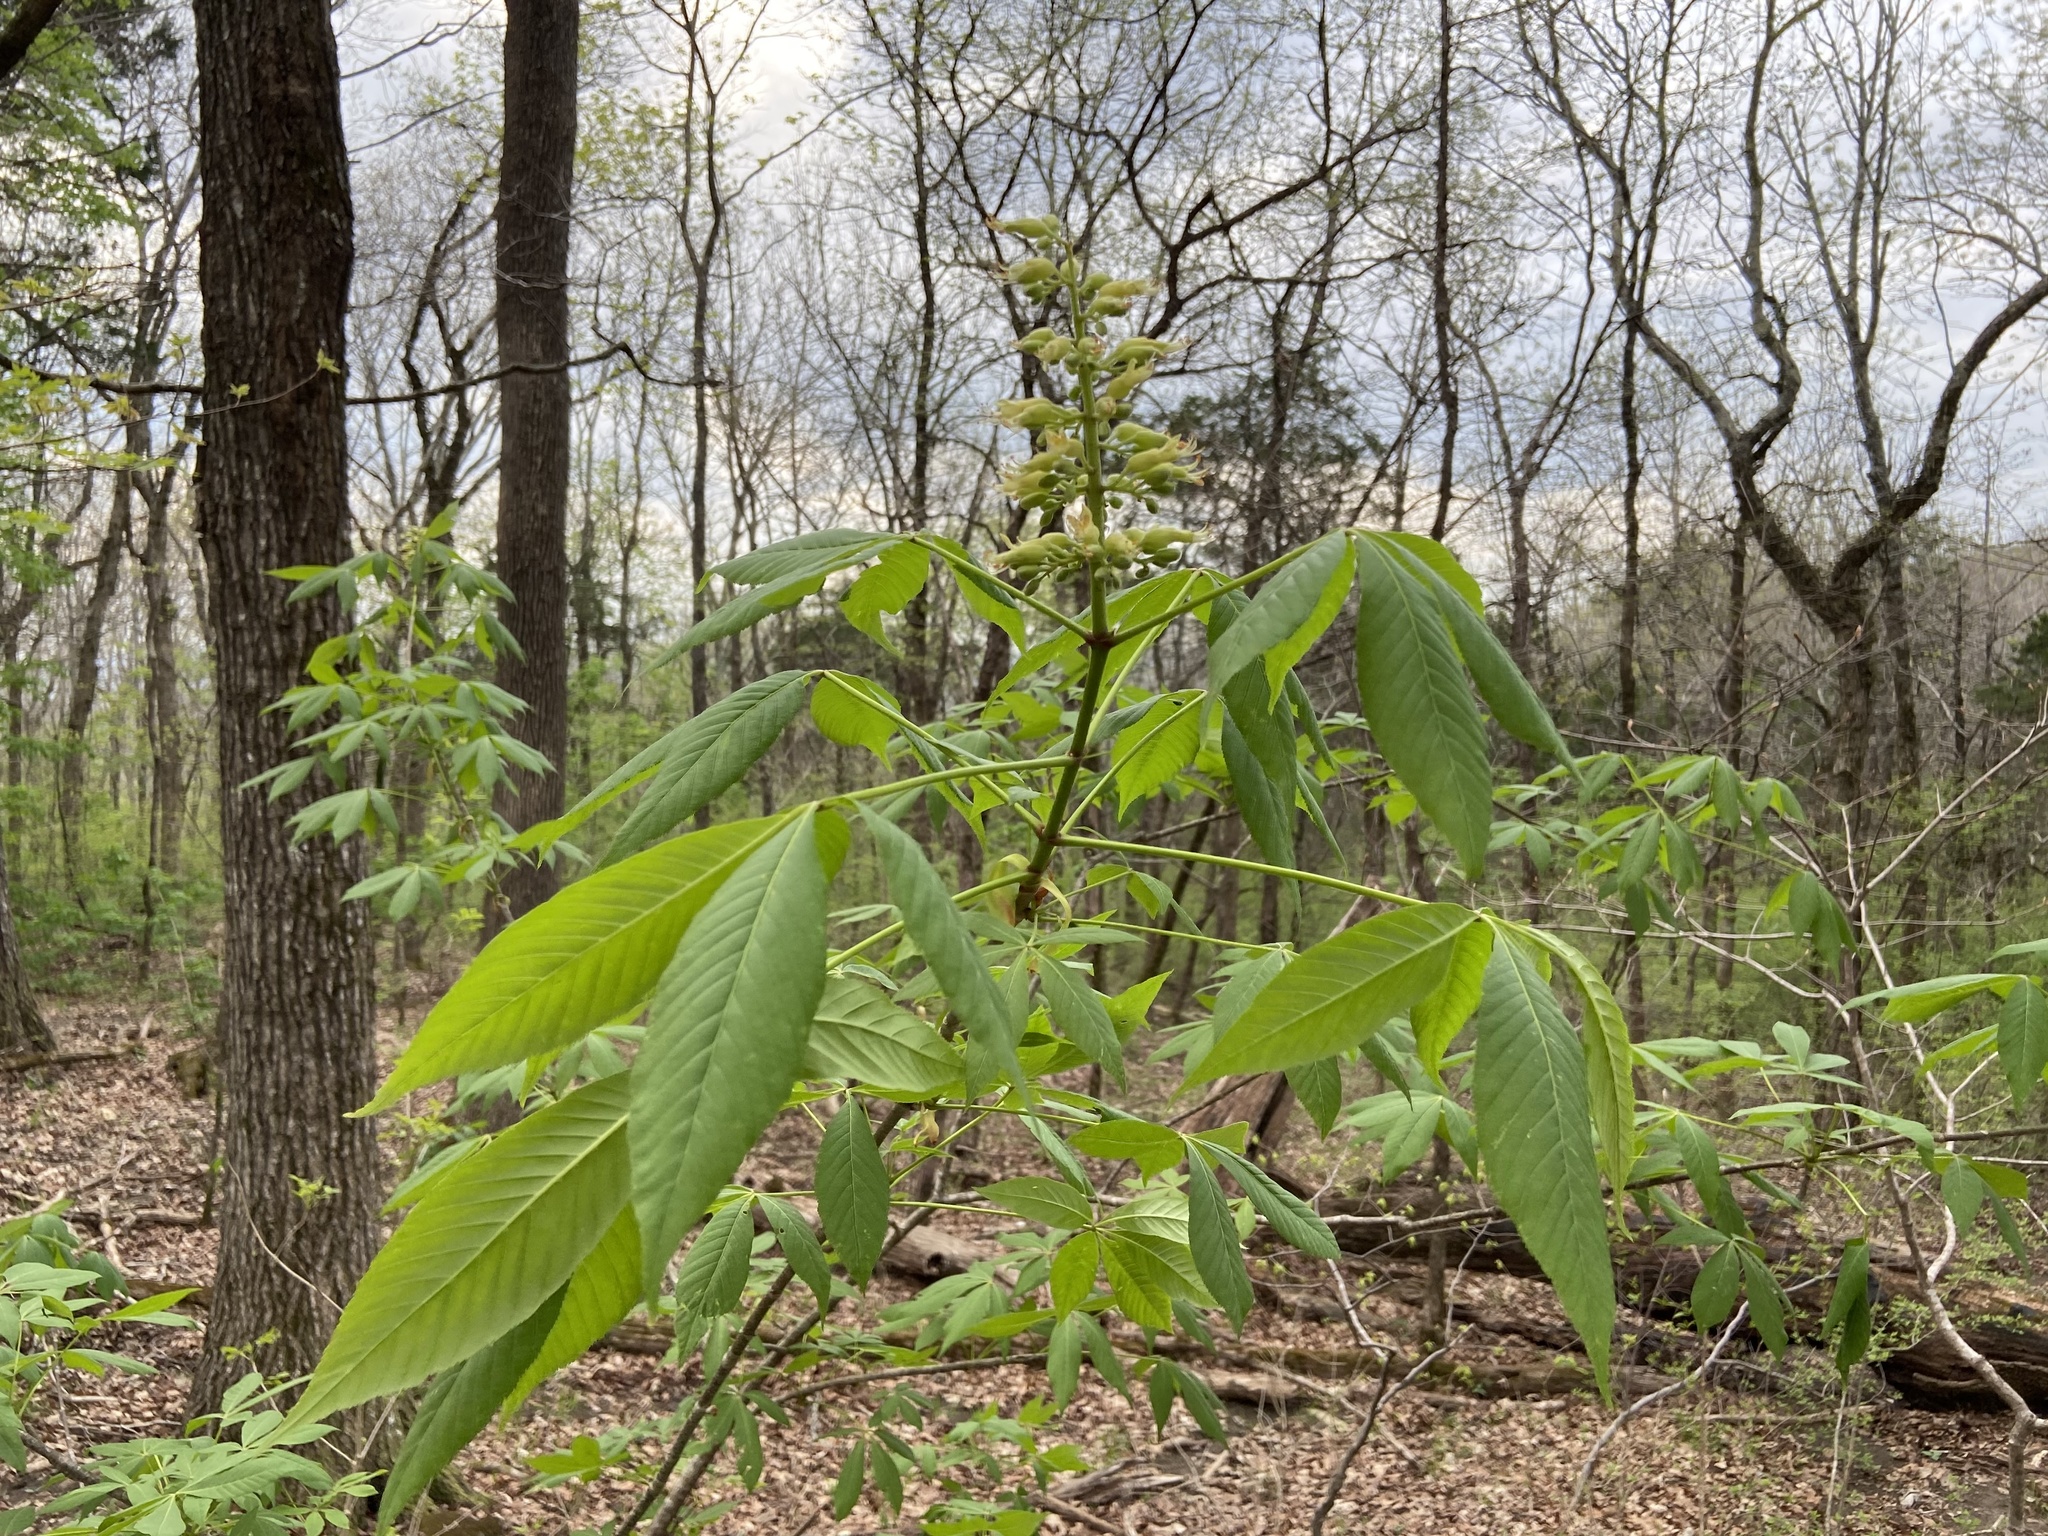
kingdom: Plantae
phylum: Tracheophyta
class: Magnoliopsida
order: Sapindales
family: Sapindaceae
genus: Aesculus
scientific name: Aesculus glabra
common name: Ohio buckeye
